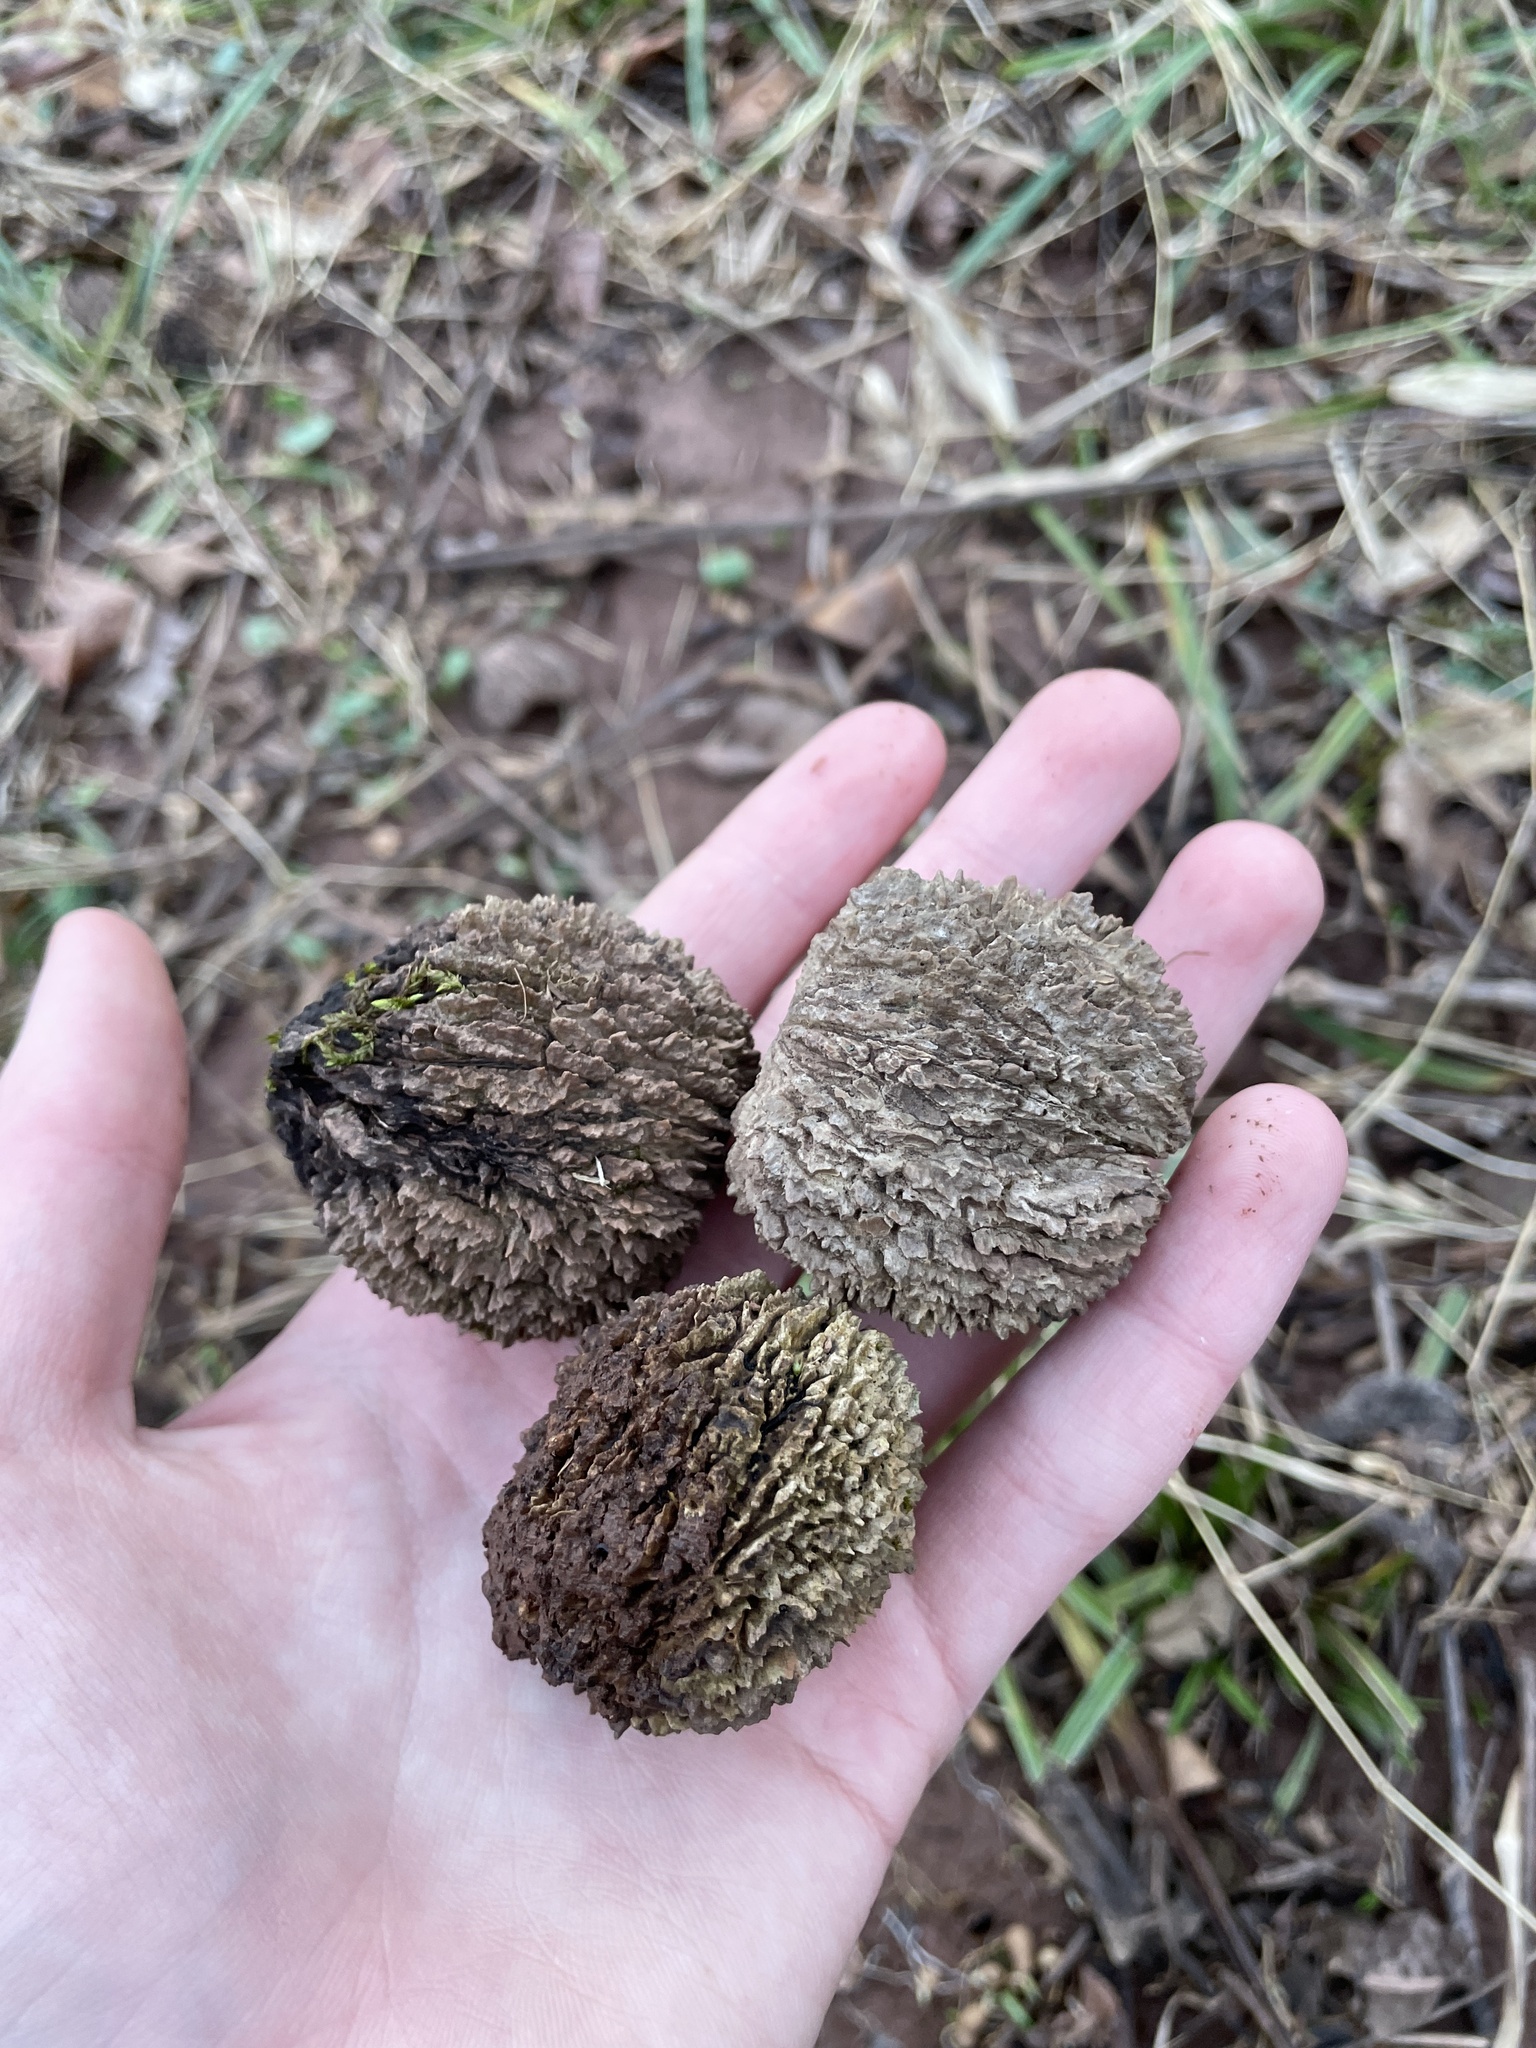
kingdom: Plantae
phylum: Tracheophyta
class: Magnoliopsida
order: Fagales
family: Juglandaceae
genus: Juglans
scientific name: Juglans nigra
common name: Black walnut
